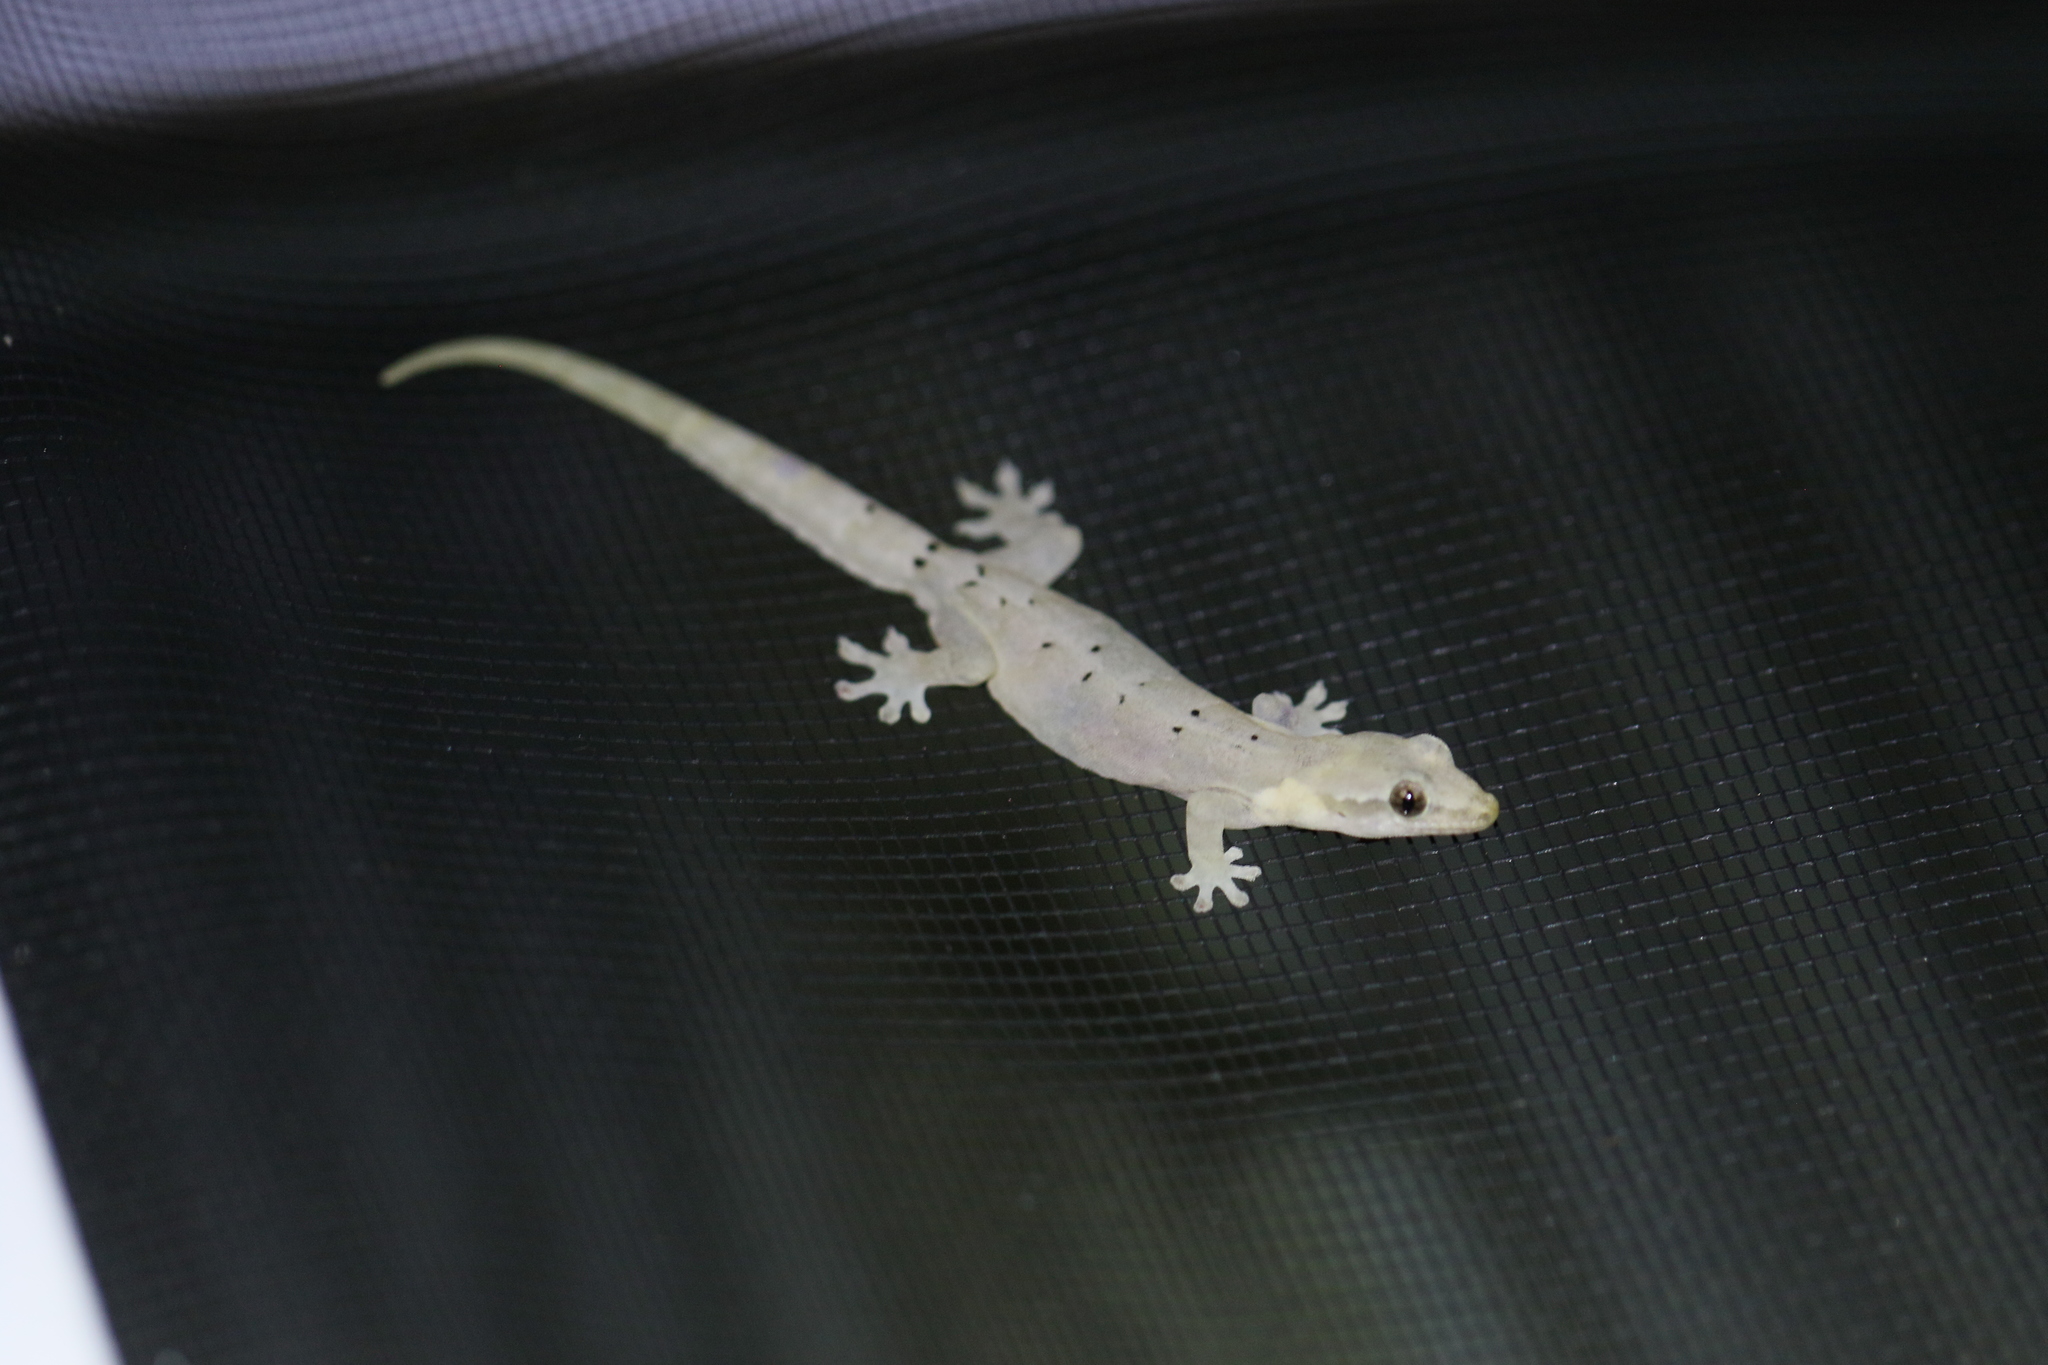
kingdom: Animalia
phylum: Chordata
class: Squamata
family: Gekkonidae
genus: Lepidodactylus
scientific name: Lepidodactylus lugubris
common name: Mourning gecko
